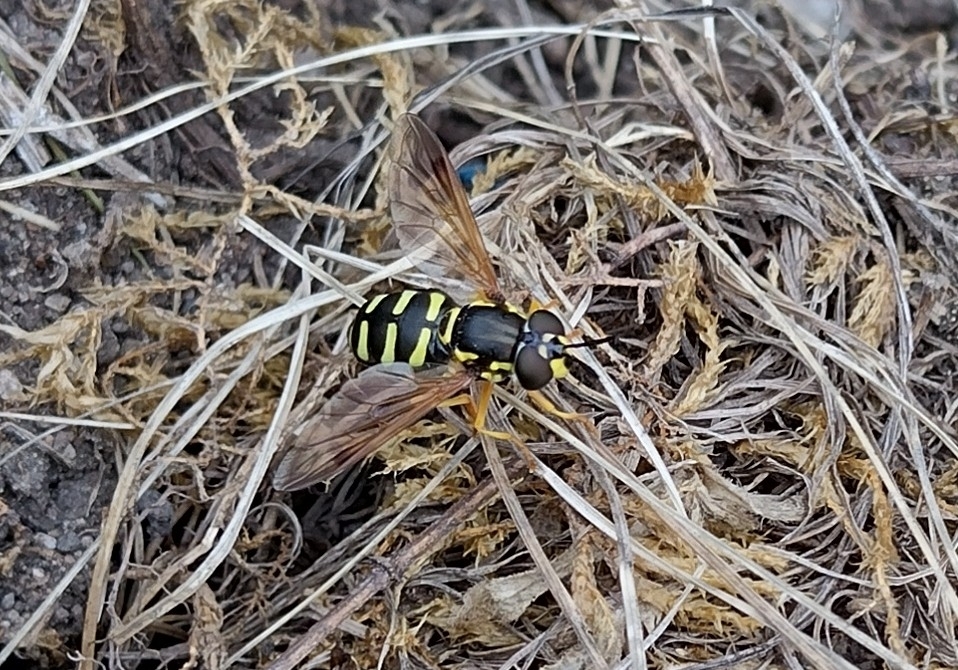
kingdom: Animalia
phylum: Arthropoda
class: Insecta
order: Diptera
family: Syrphidae
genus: Chrysotoxum
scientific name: Chrysotoxum festivum
